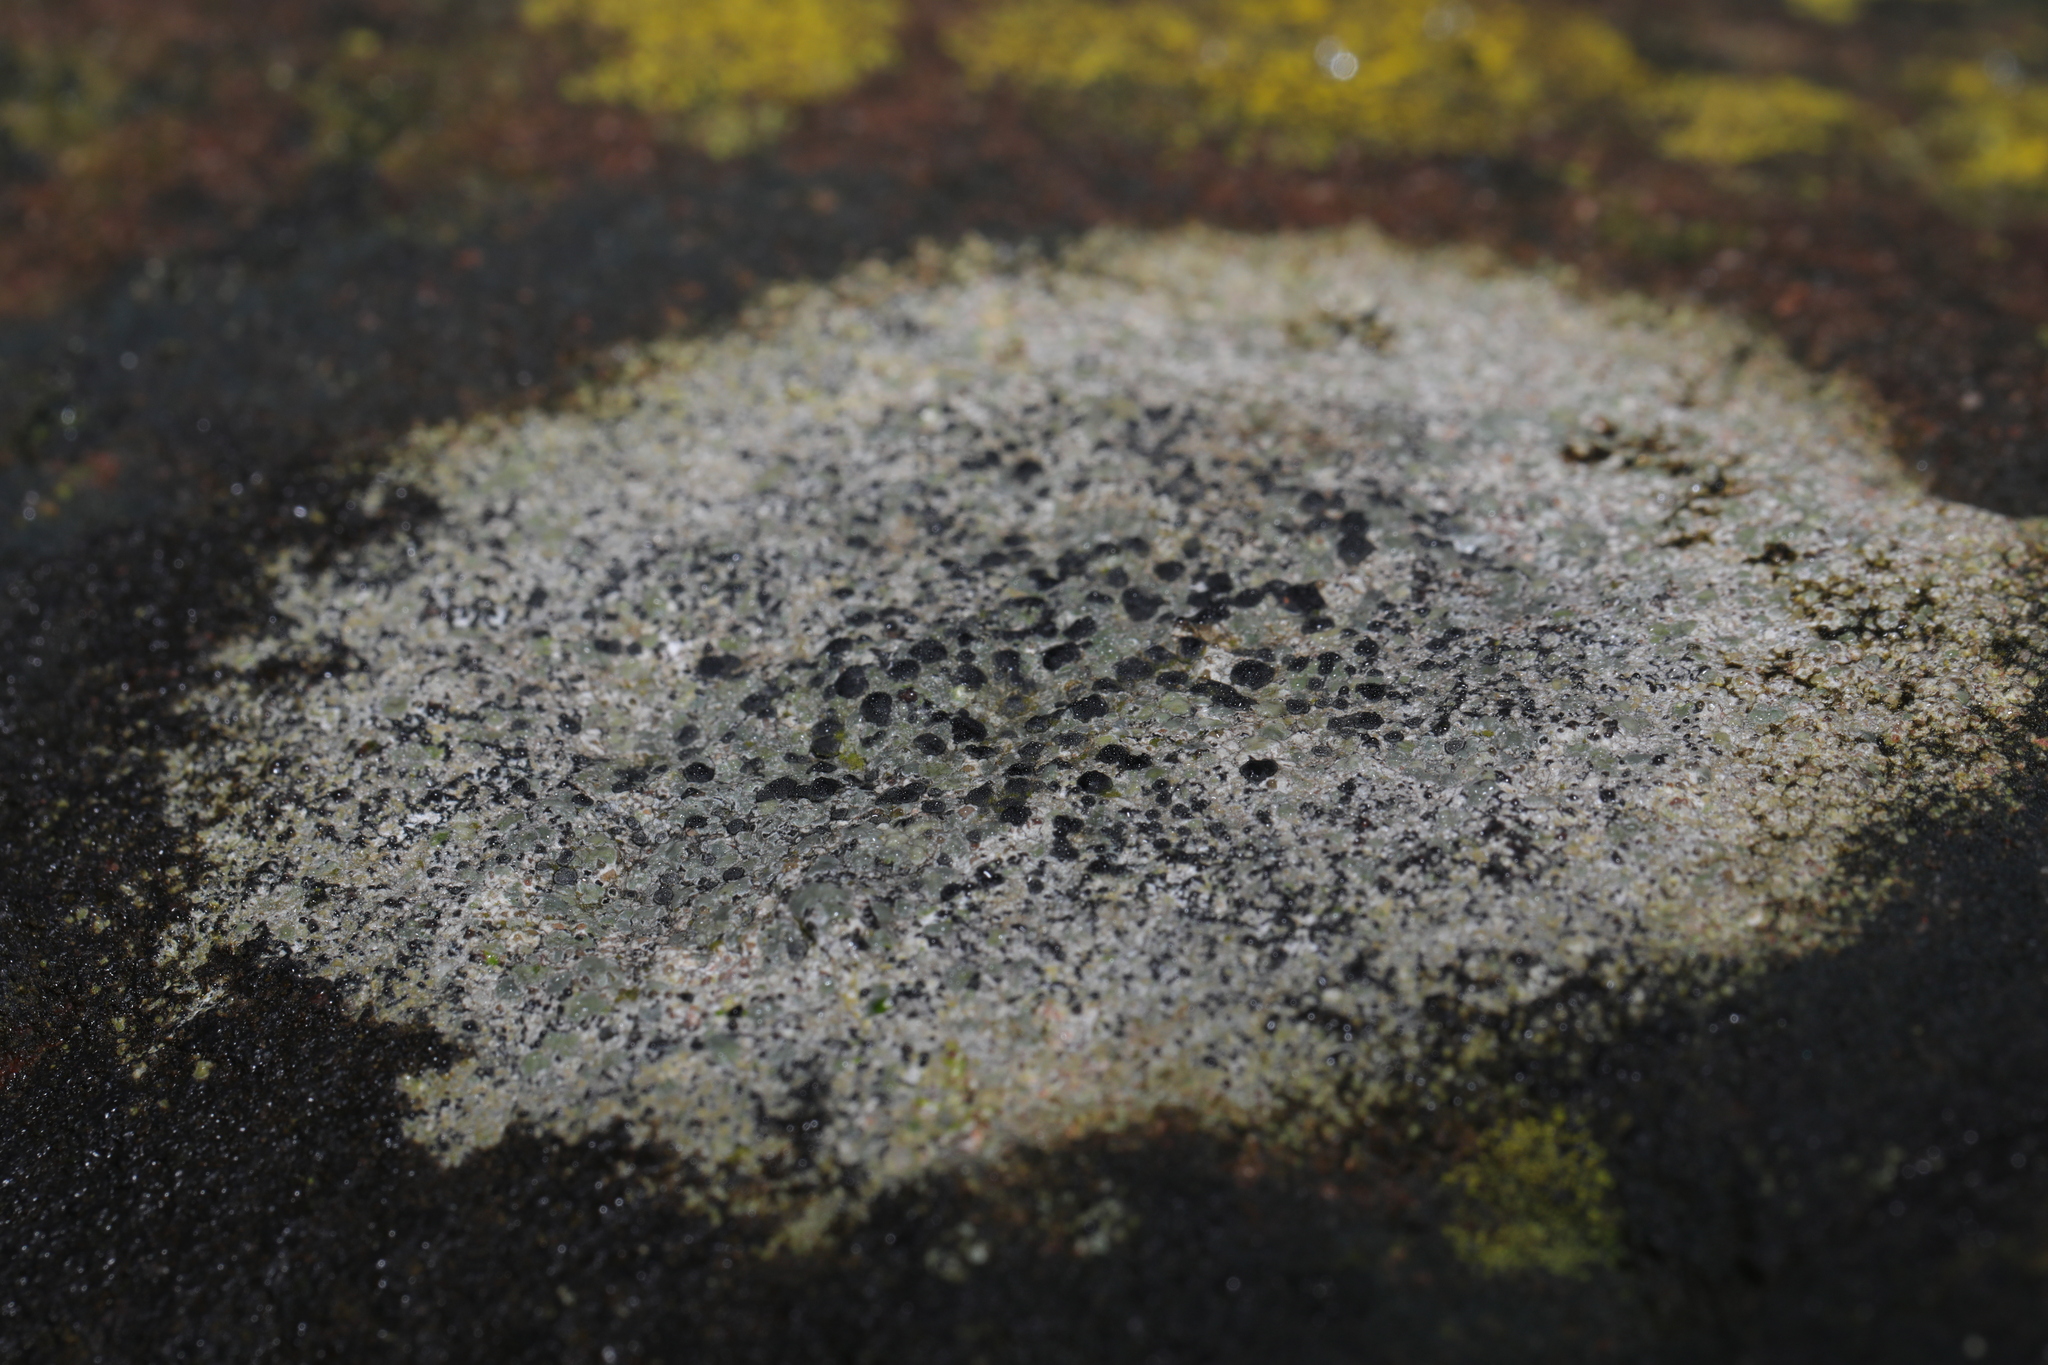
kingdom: Fungi
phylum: Ascomycota
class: Lecanoromycetes
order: Lecanorales
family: Lecanoraceae
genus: Lecidella
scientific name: Lecidella stigmatea
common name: Limestone disc lichen
